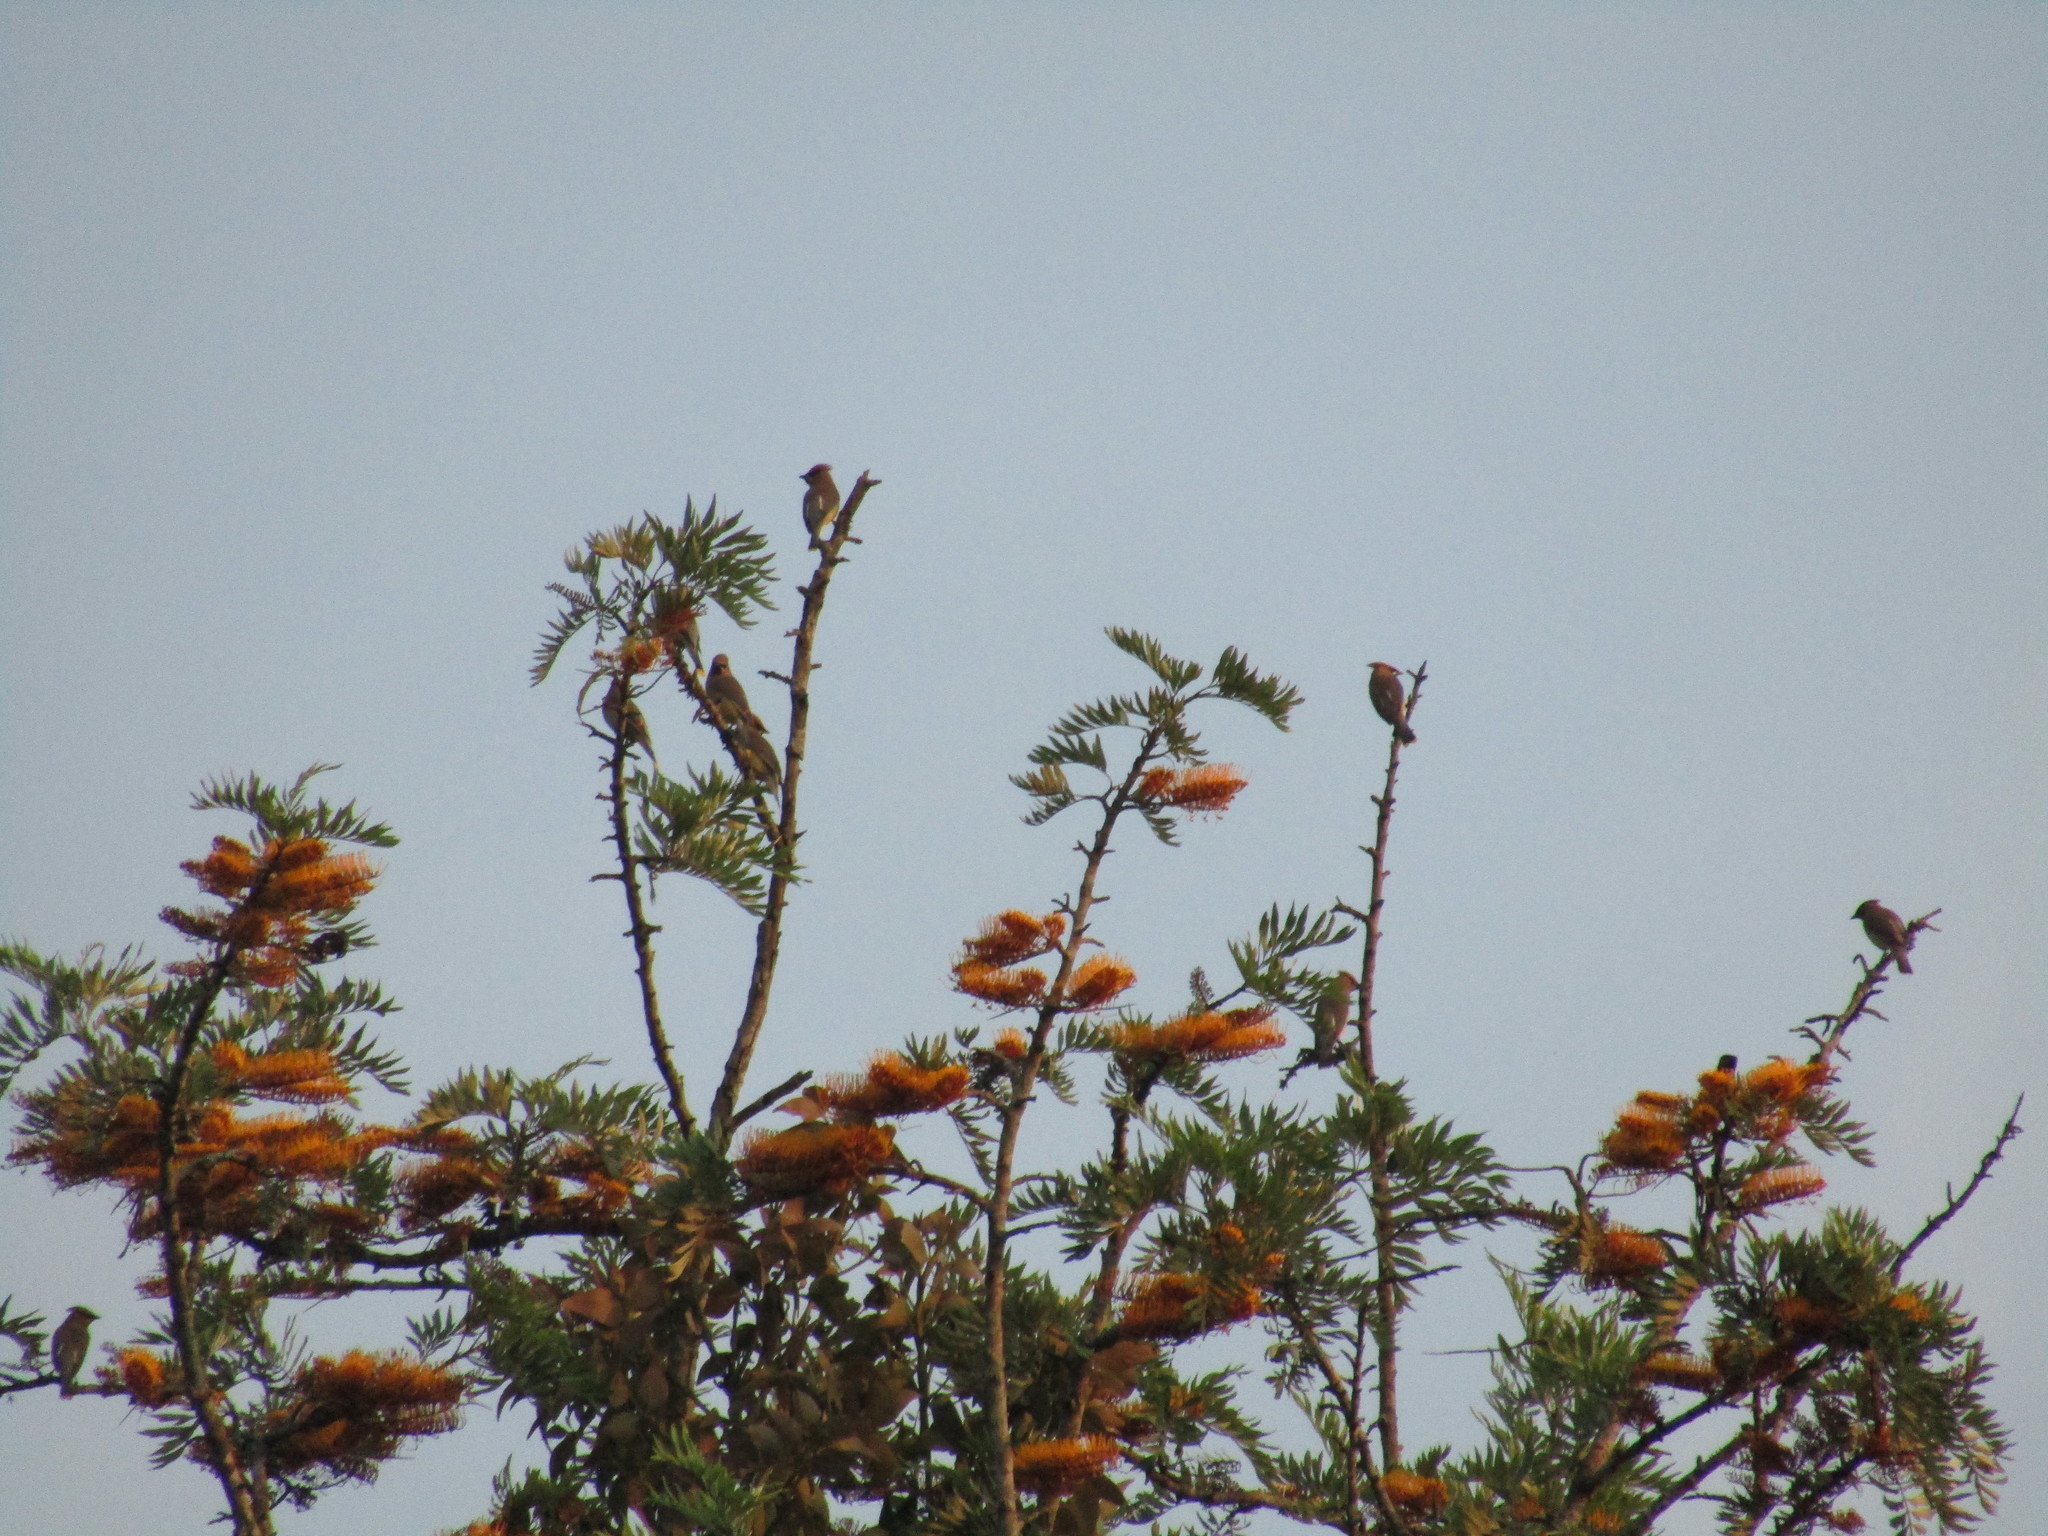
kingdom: Animalia
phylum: Chordata
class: Aves
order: Passeriformes
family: Bombycillidae
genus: Bombycilla
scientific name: Bombycilla cedrorum
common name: Cedar waxwing
